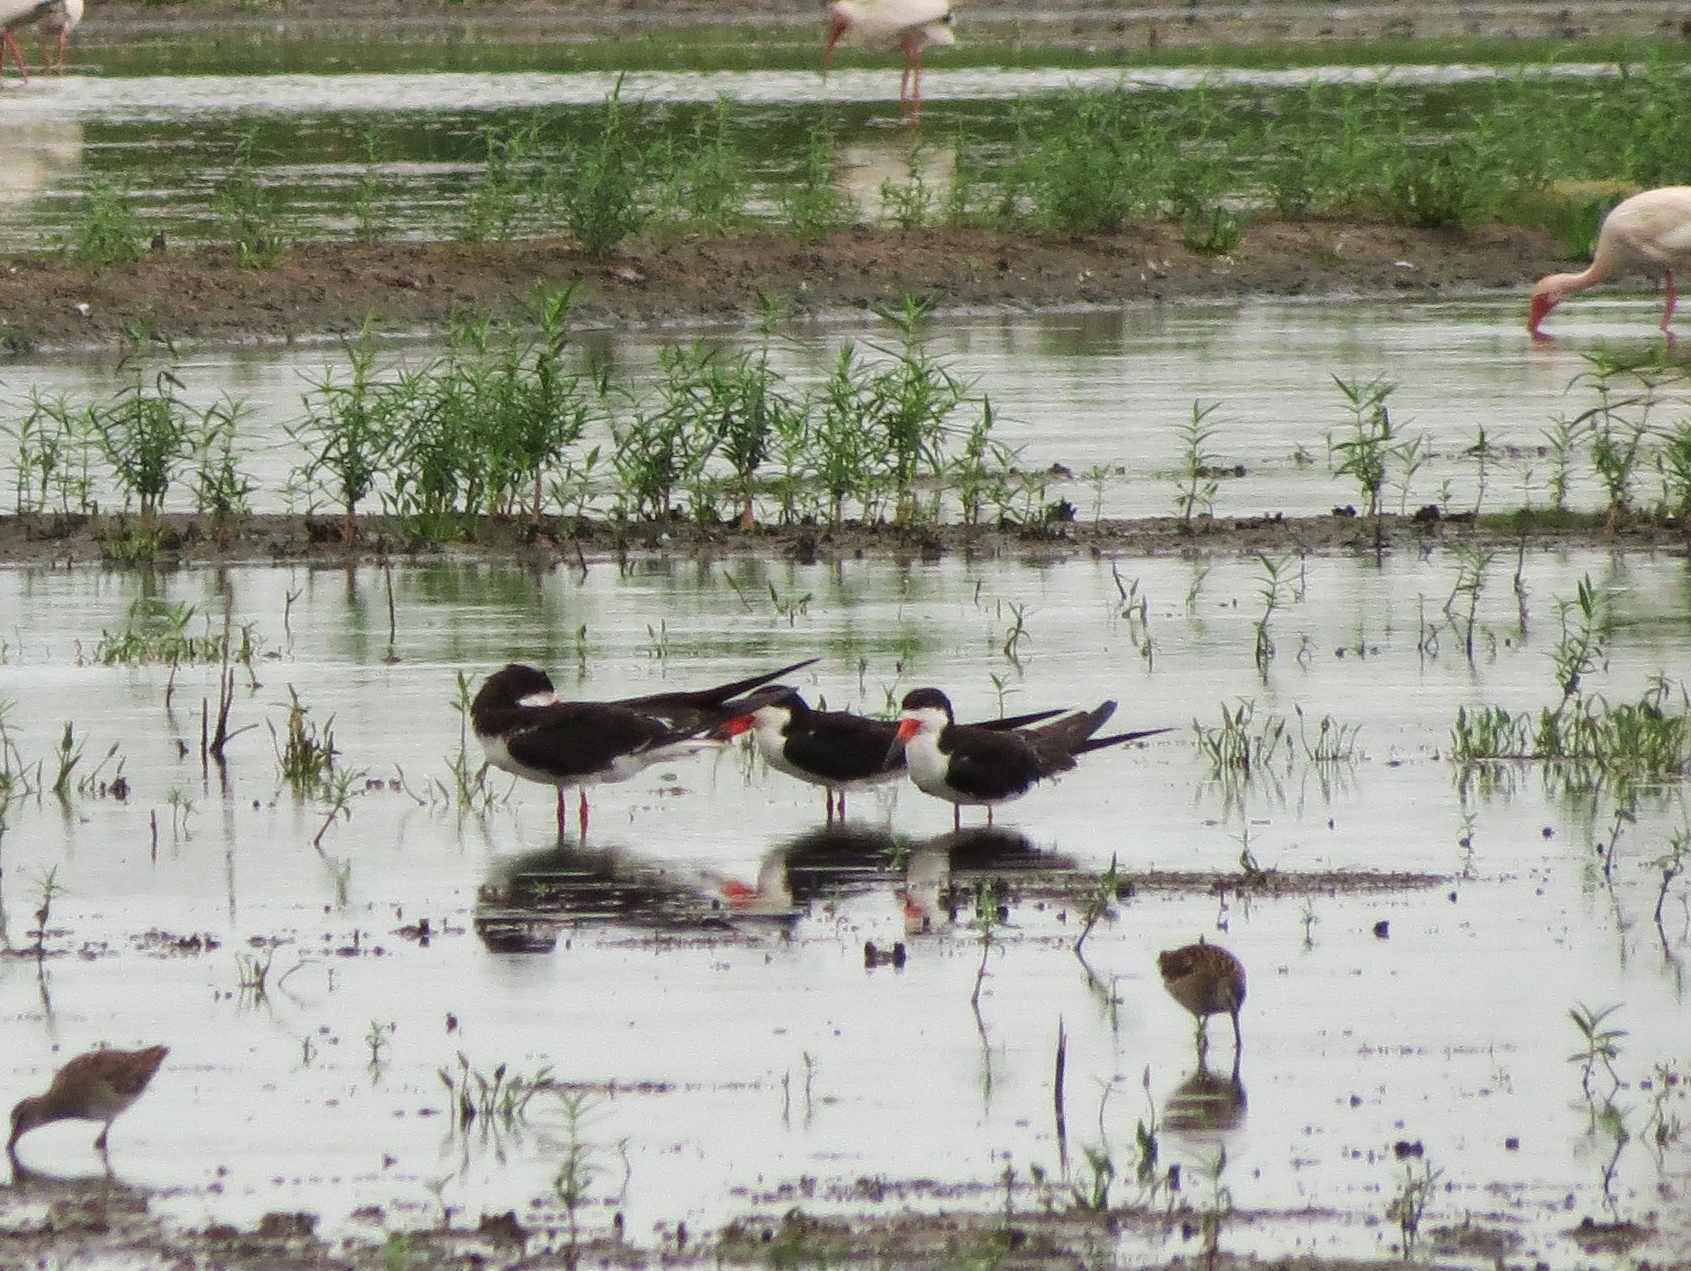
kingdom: Animalia
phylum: Chordata
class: Aves
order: Charadriiformes
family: Laridae
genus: Rynchops
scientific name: Rynchops niger
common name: Black skimmer
